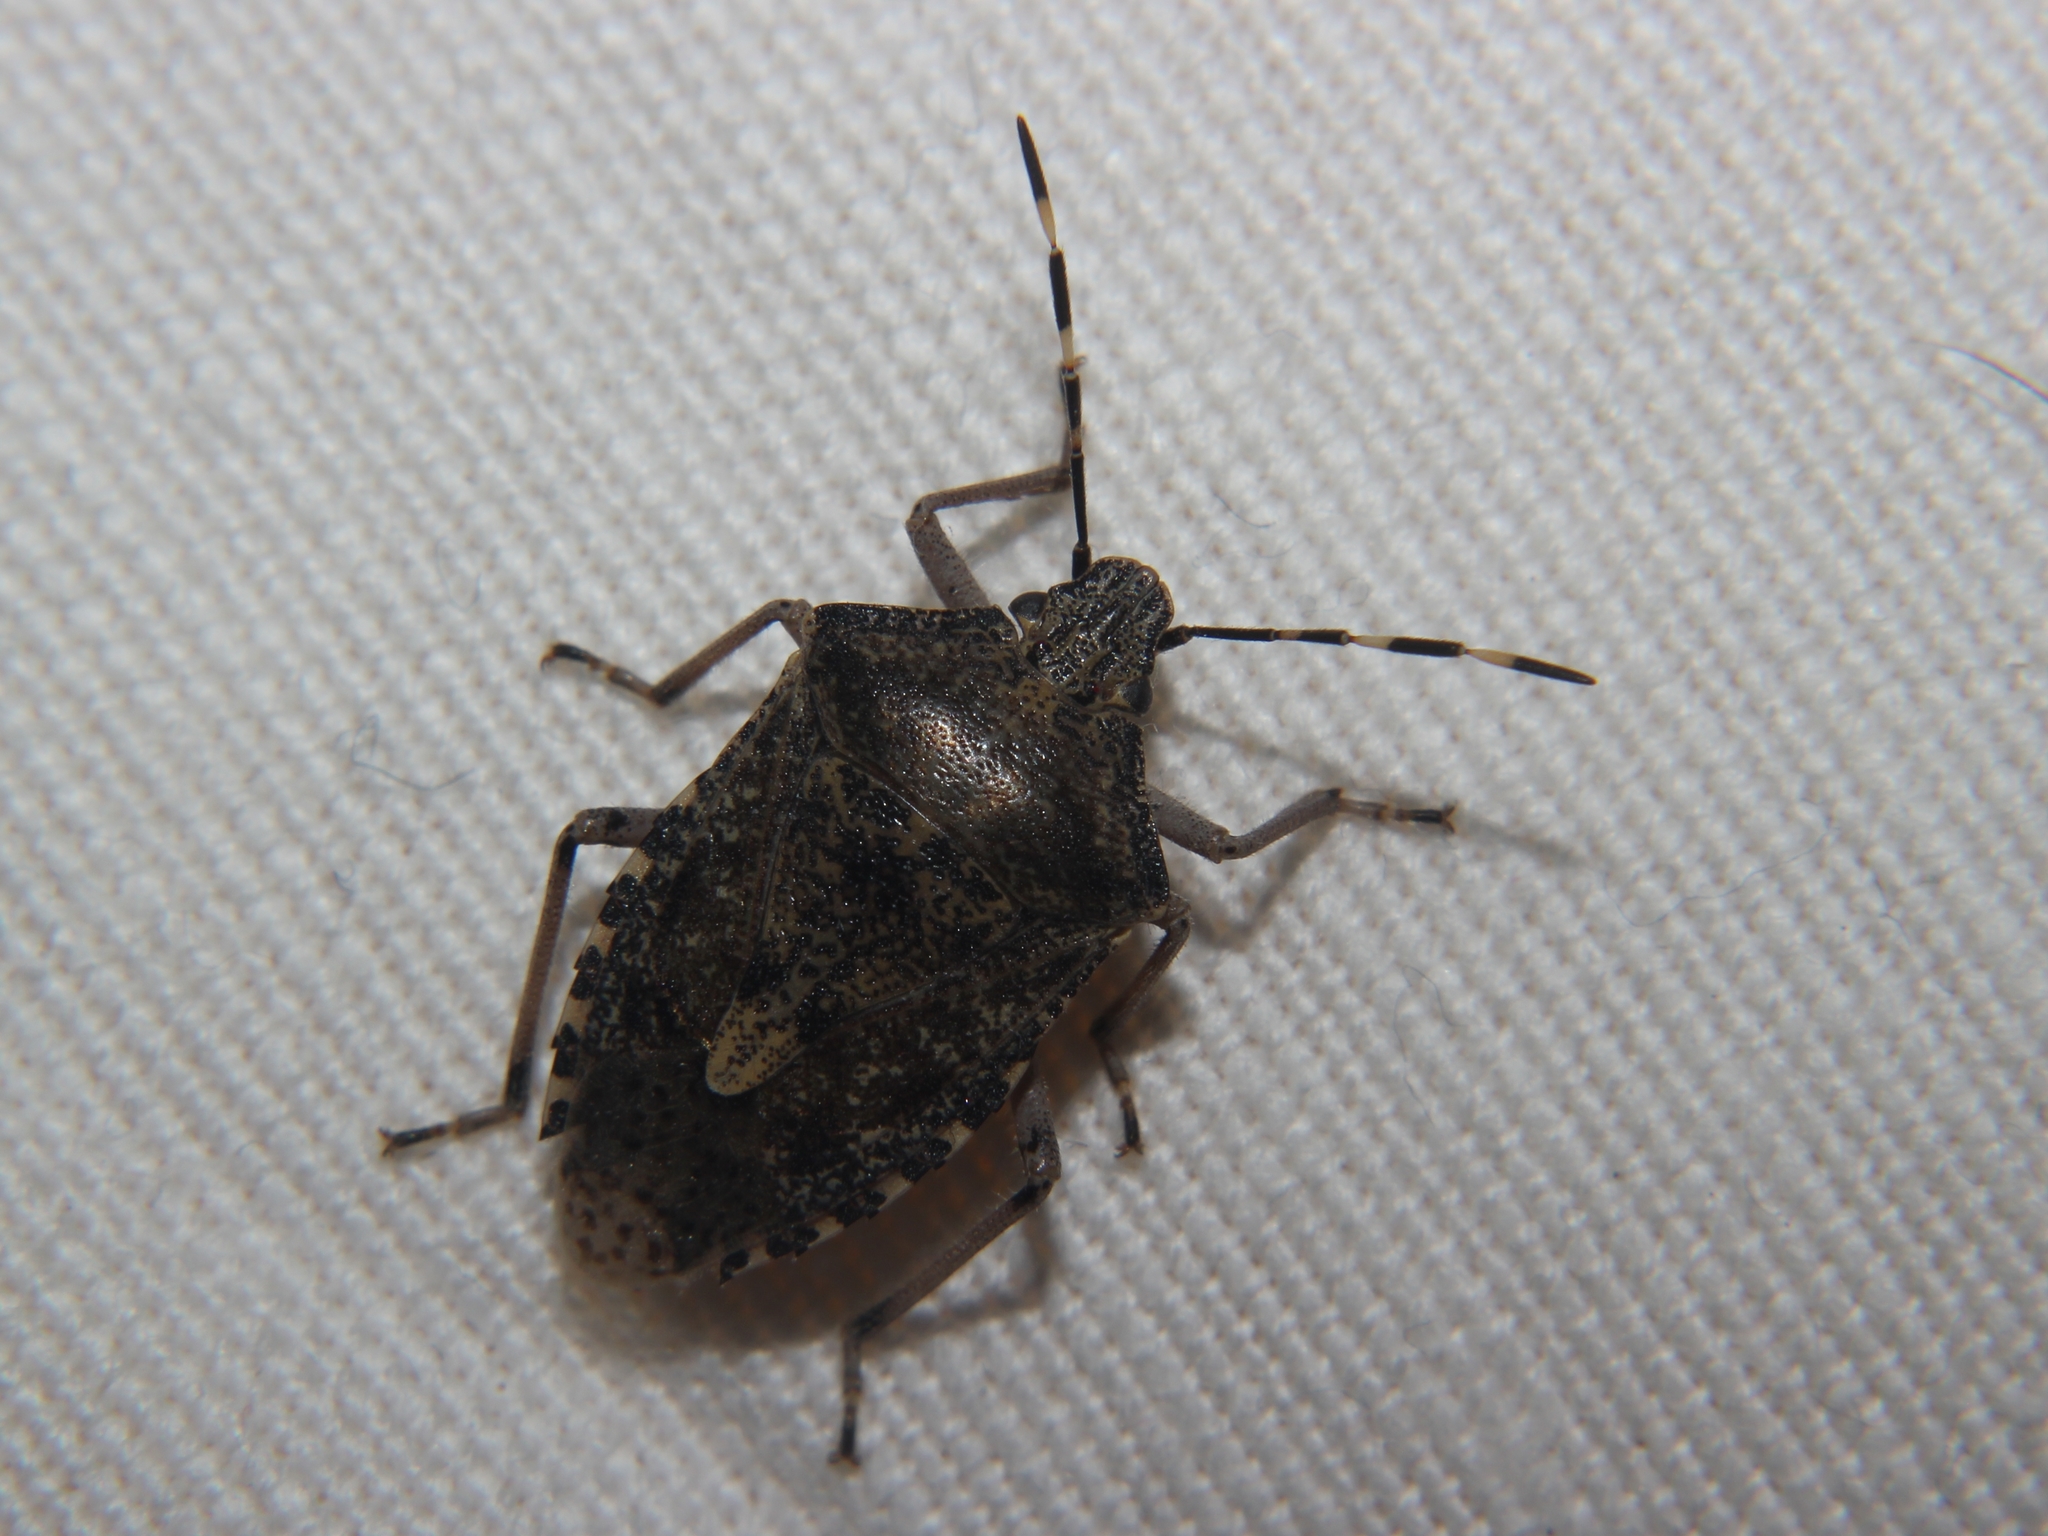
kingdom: Animalia
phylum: Arthropoda
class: Insecta
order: Hemiptera
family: Pentatomidae
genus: Rhaphigaster
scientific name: Rhaphigaster nebulosa
